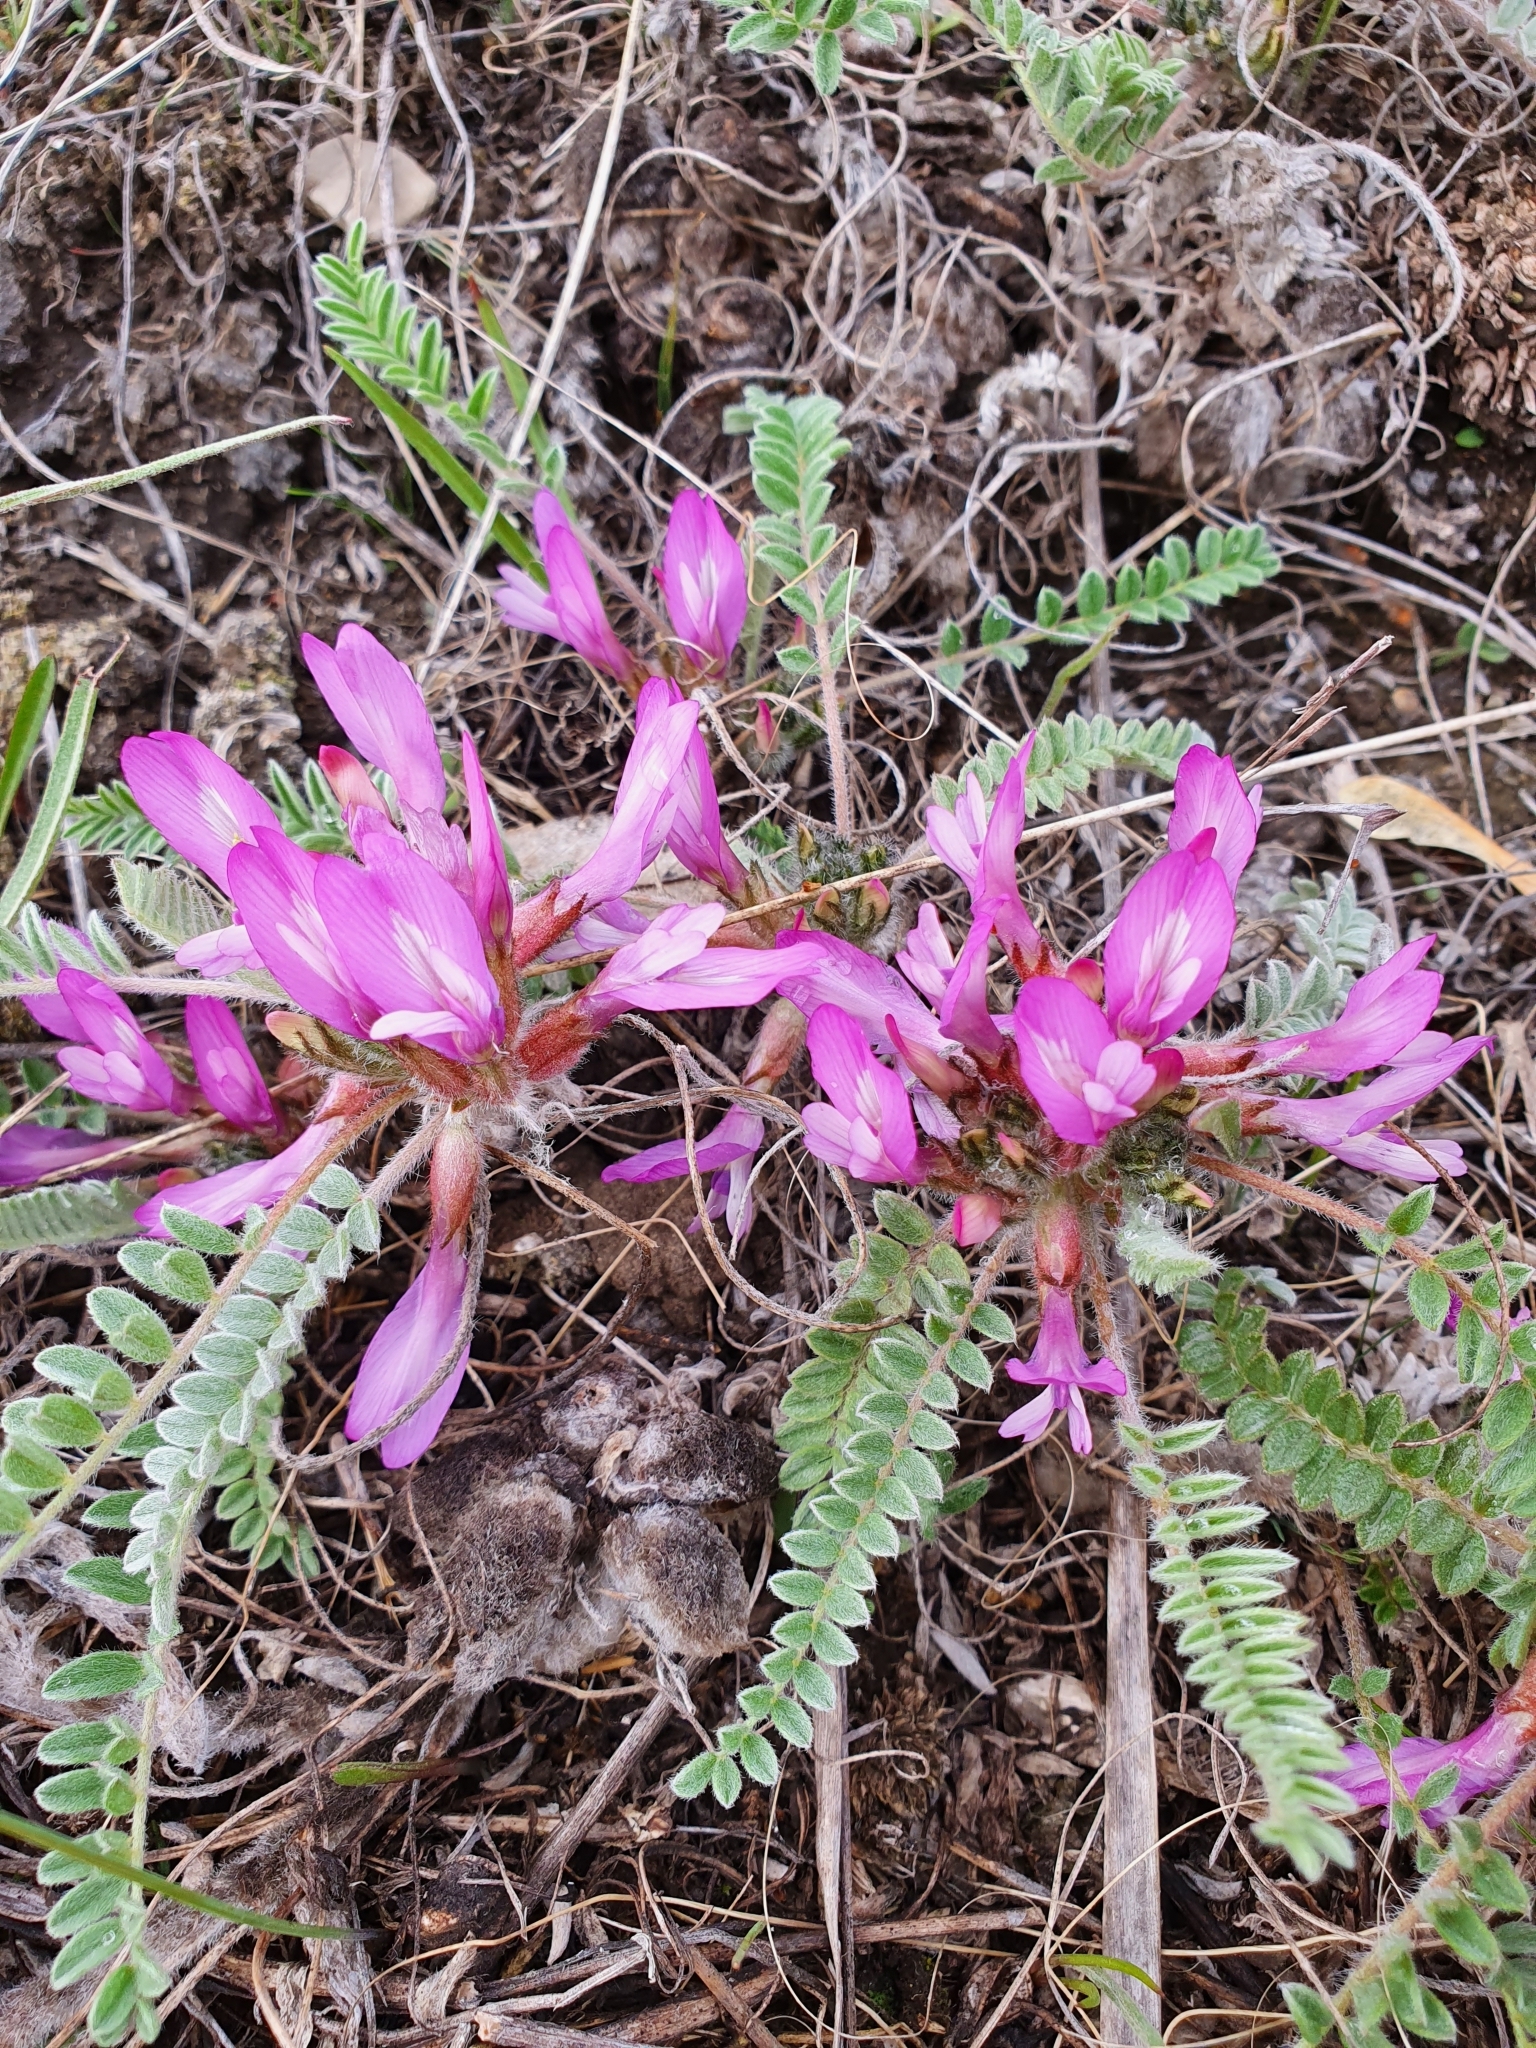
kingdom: Plantae
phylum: Tracheophyta
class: Magnoliopsida
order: Fabales
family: Fabaceae
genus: Astragalus
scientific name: Astragalus testiculatus
